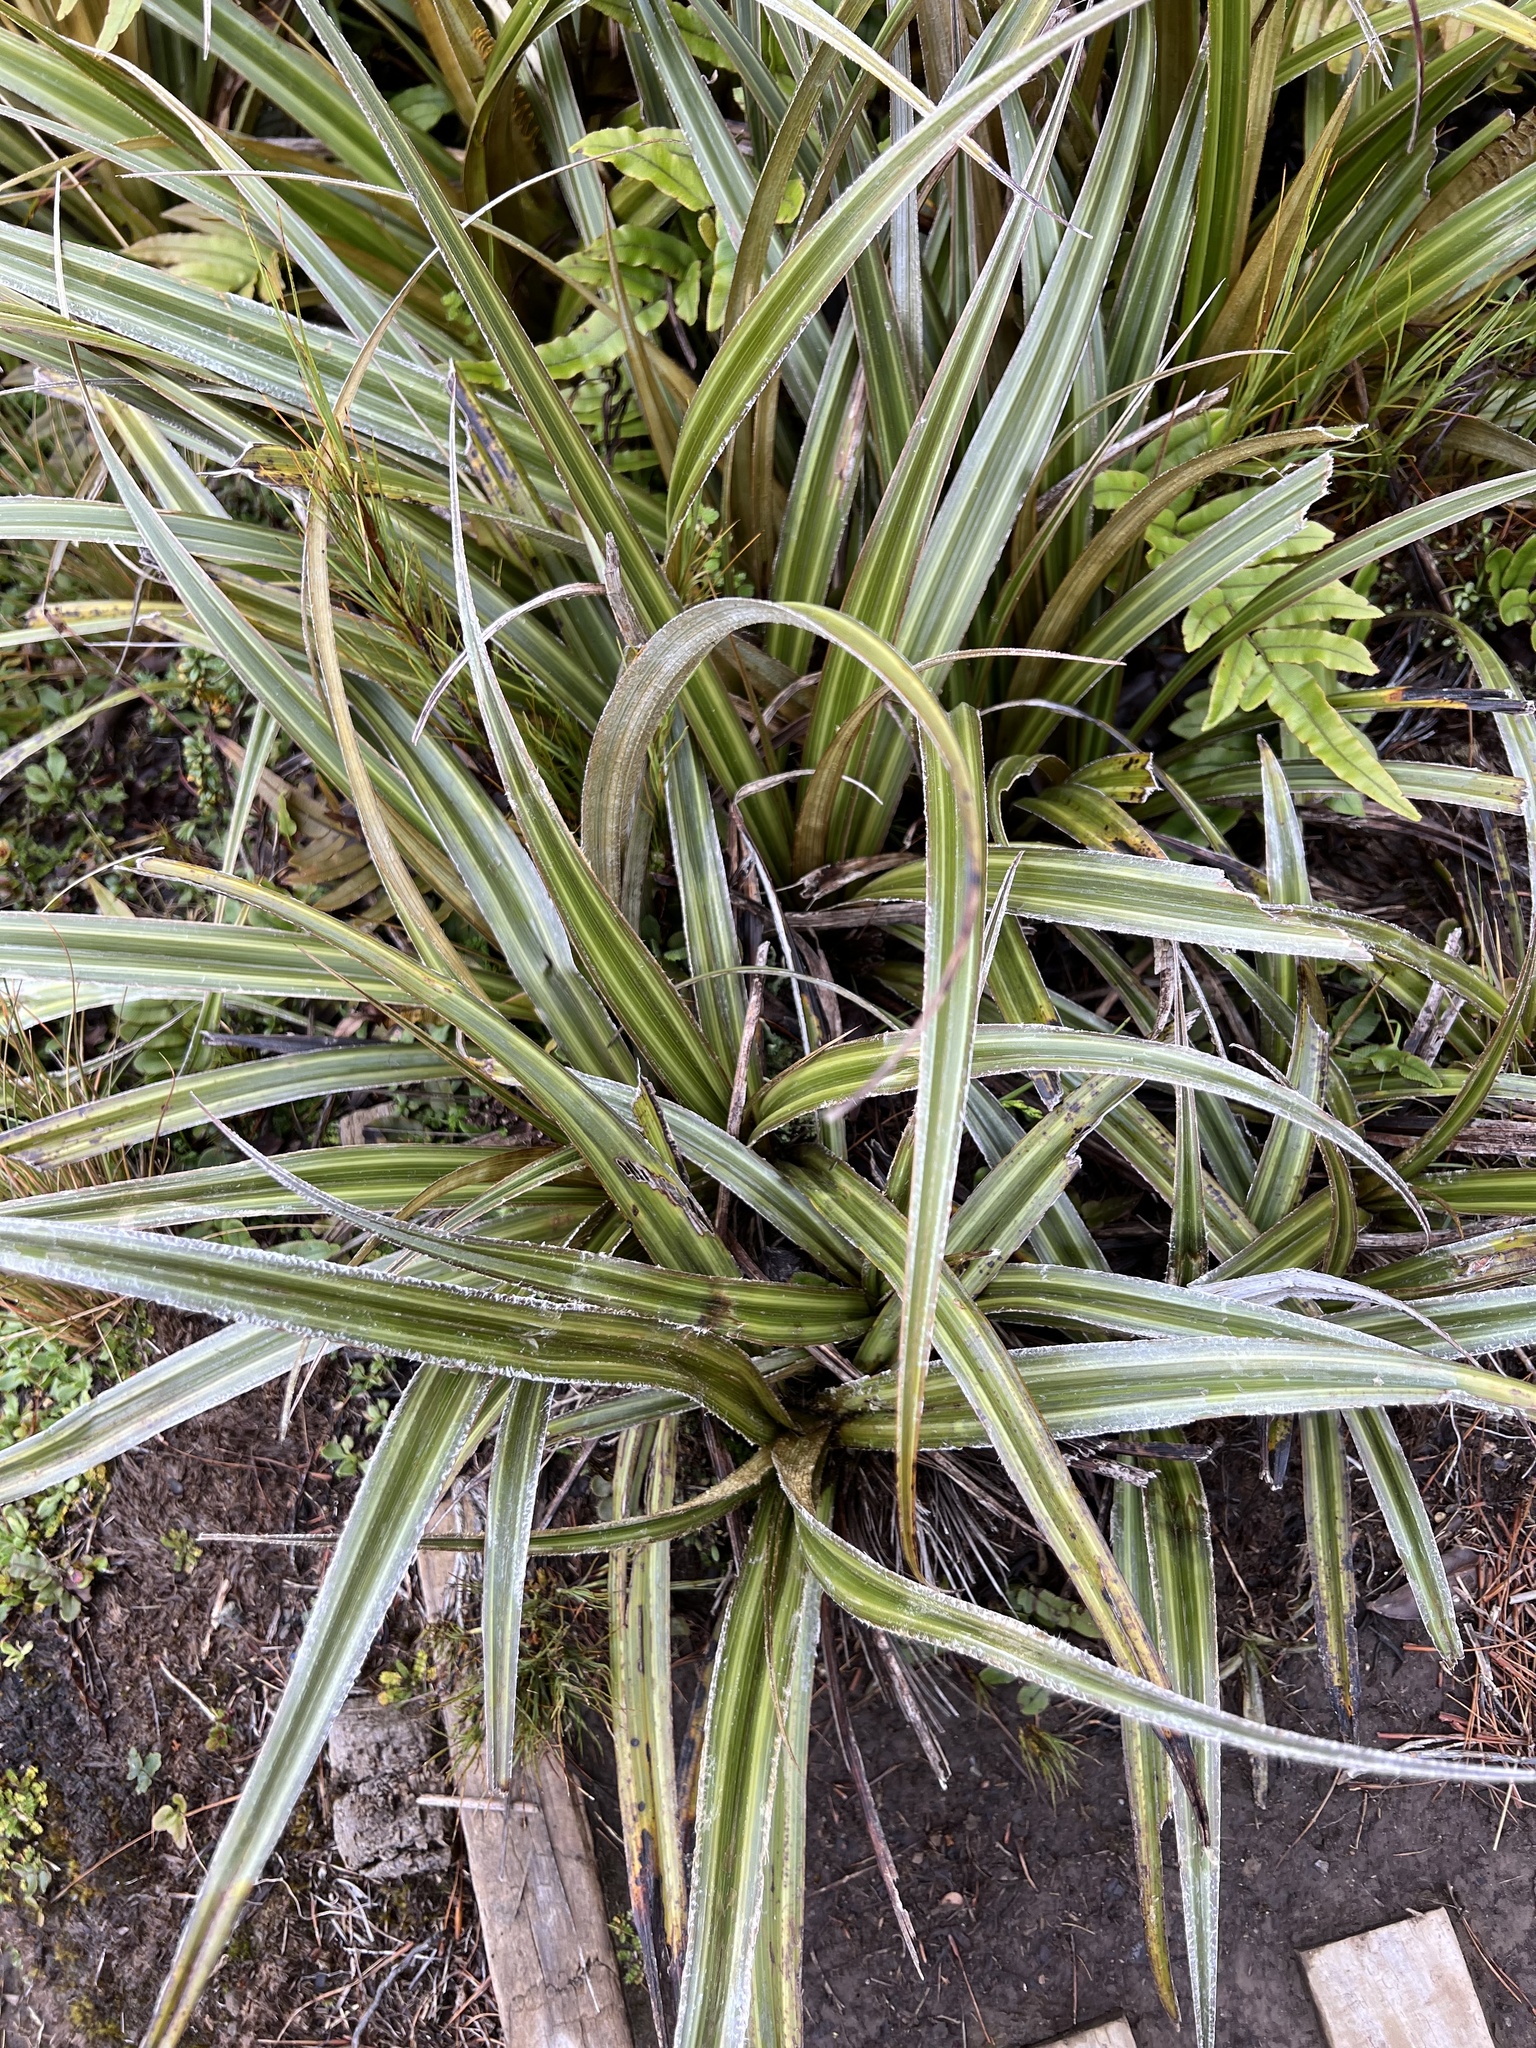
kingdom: Plantae
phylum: Tracheophyta
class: Liliopsida
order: Asparagales
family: Asteliaceae
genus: Astelia
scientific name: Astelia nervosa
